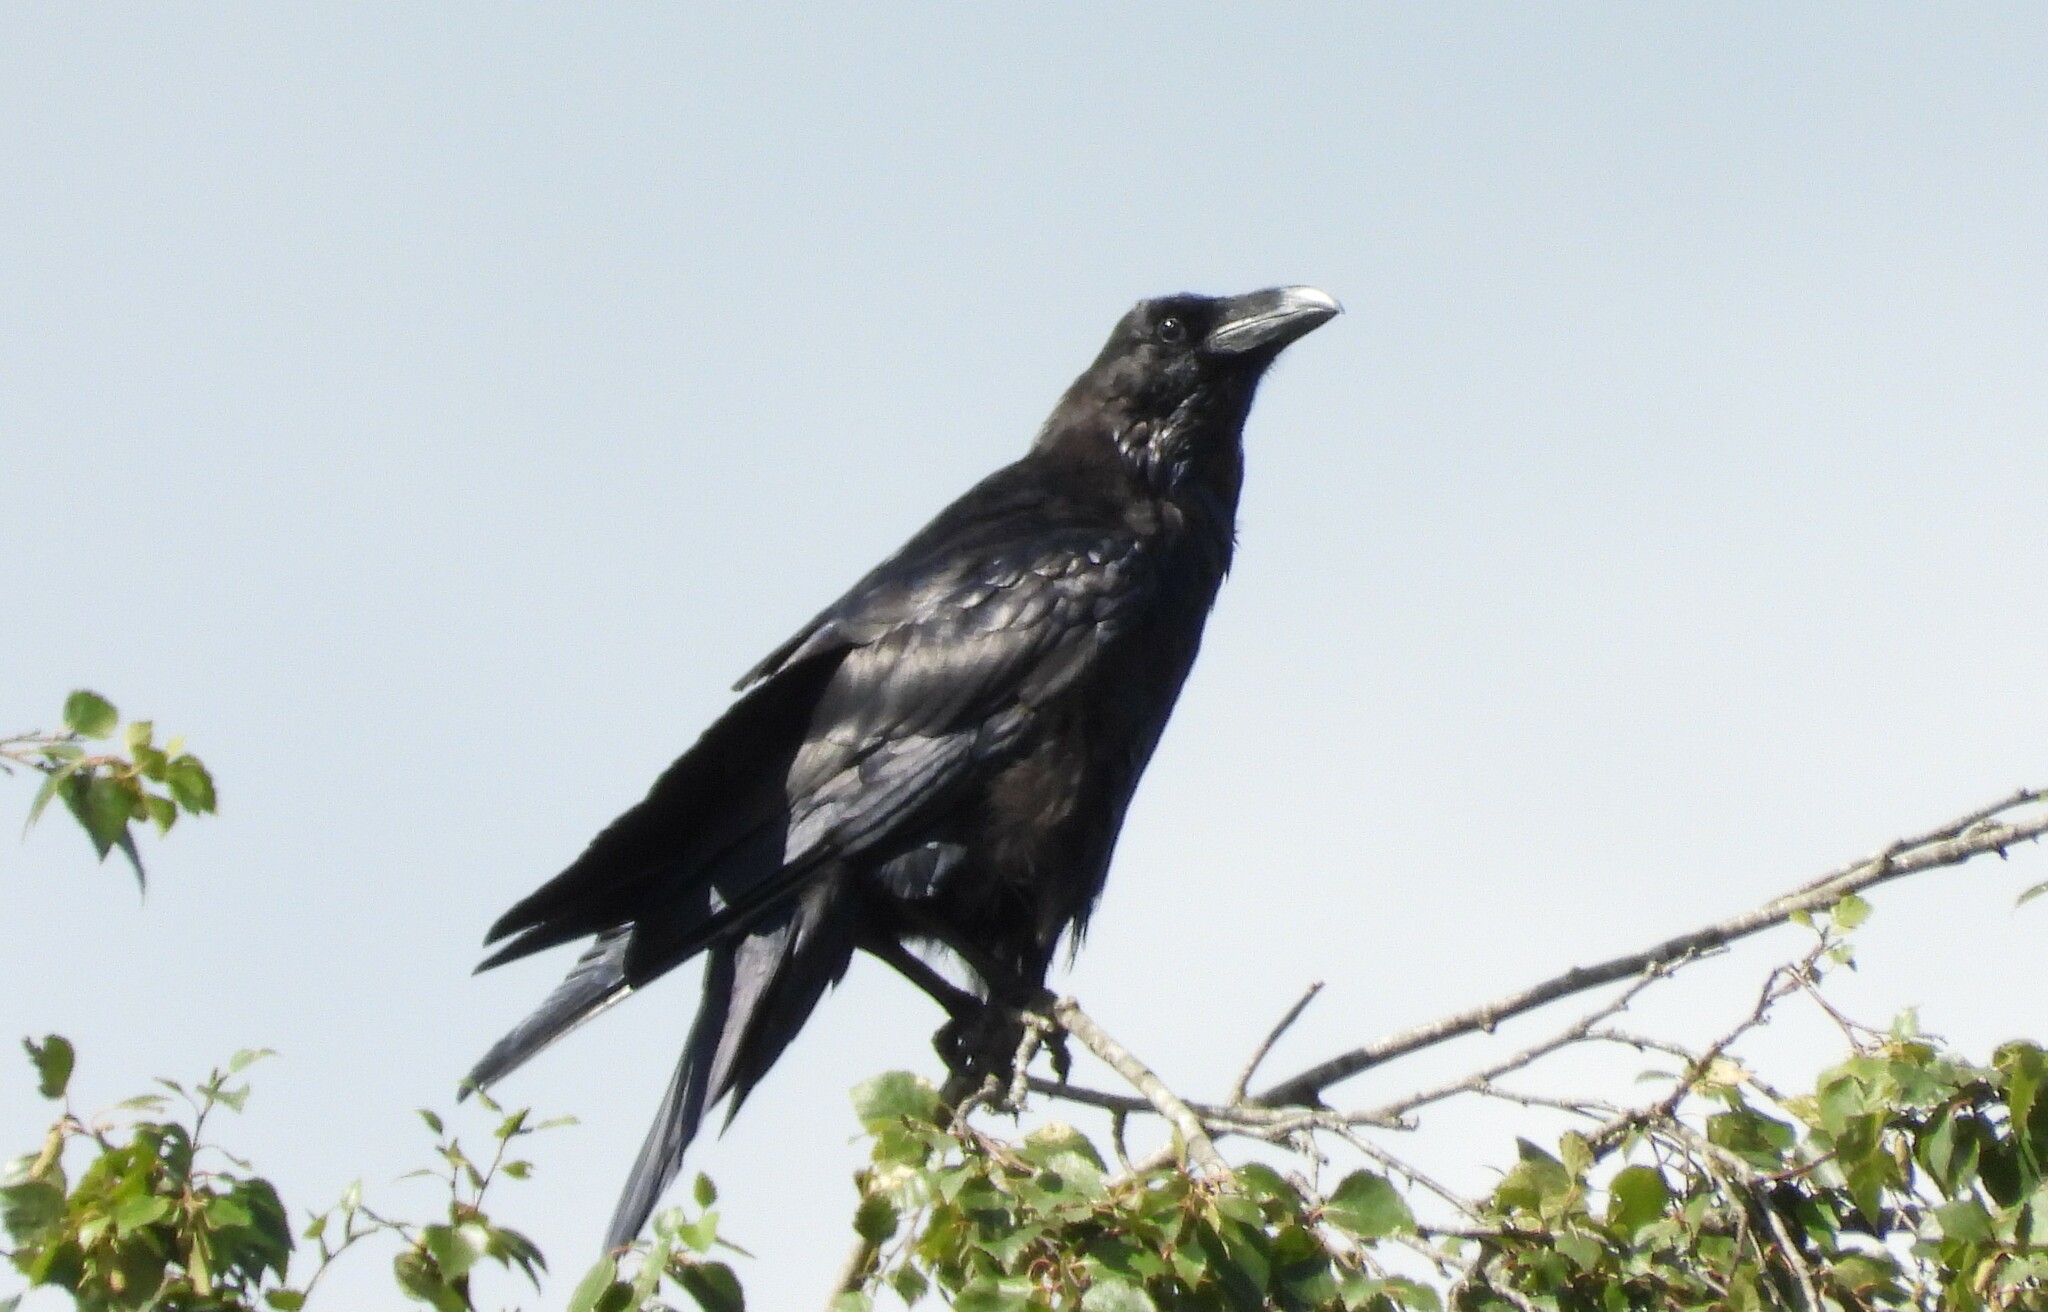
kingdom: Animalia
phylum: Chordata
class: Aves
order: Passeriformes
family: Corvidae
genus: Corvus
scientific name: Corvus corax
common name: Common raven
